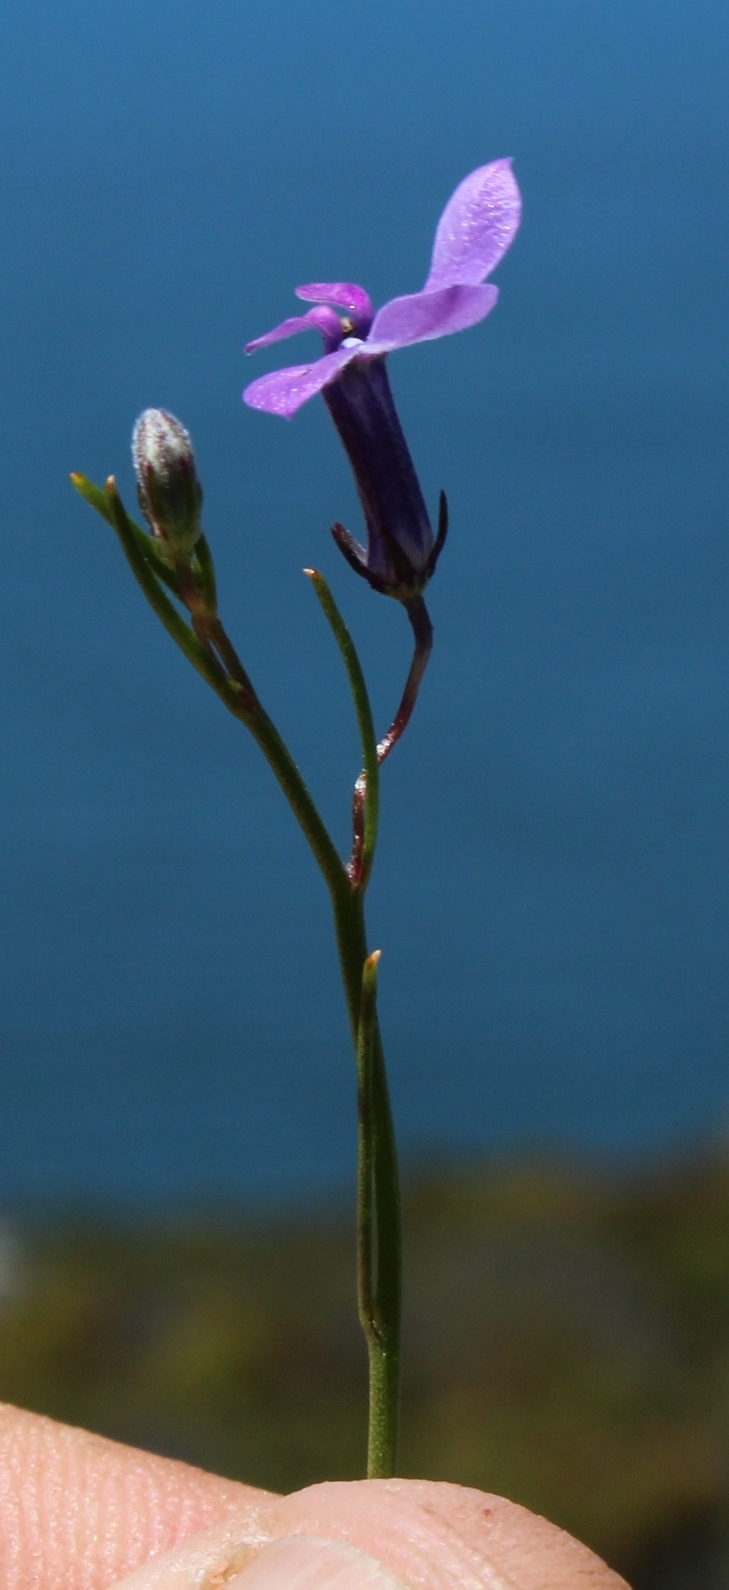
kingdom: Plantae
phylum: Tracheophyta
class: Magnoliopsida
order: Asterales
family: Campanulaceae
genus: Lobelia
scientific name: Lobelia setacea
